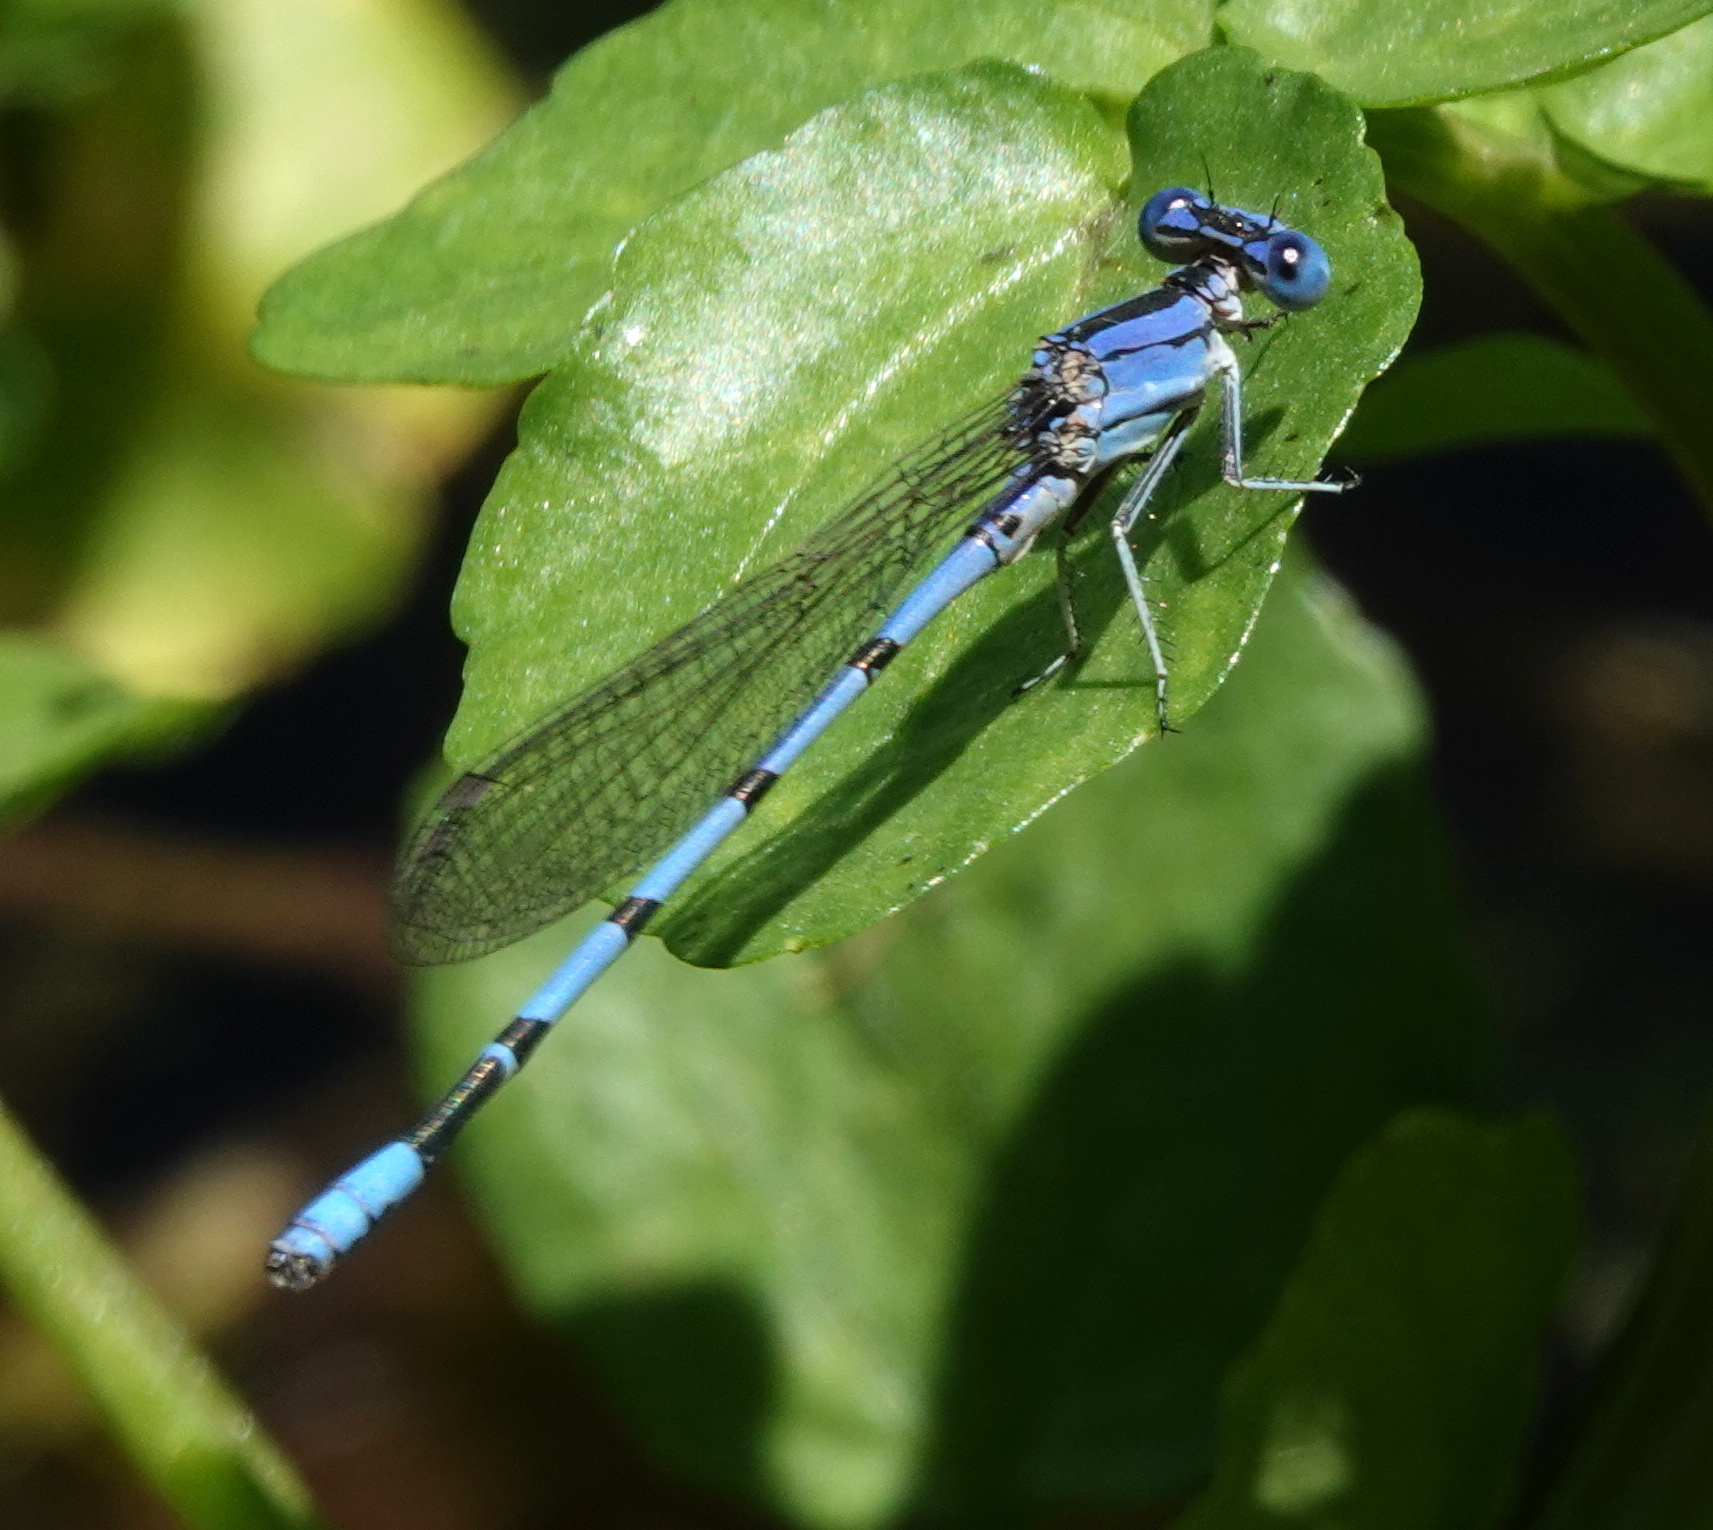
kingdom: Animalia
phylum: Arthropoda
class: Insecta
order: Odonata
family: Coenagrionidae
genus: Argia
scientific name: Argia nahuana
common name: Aztec dancer
